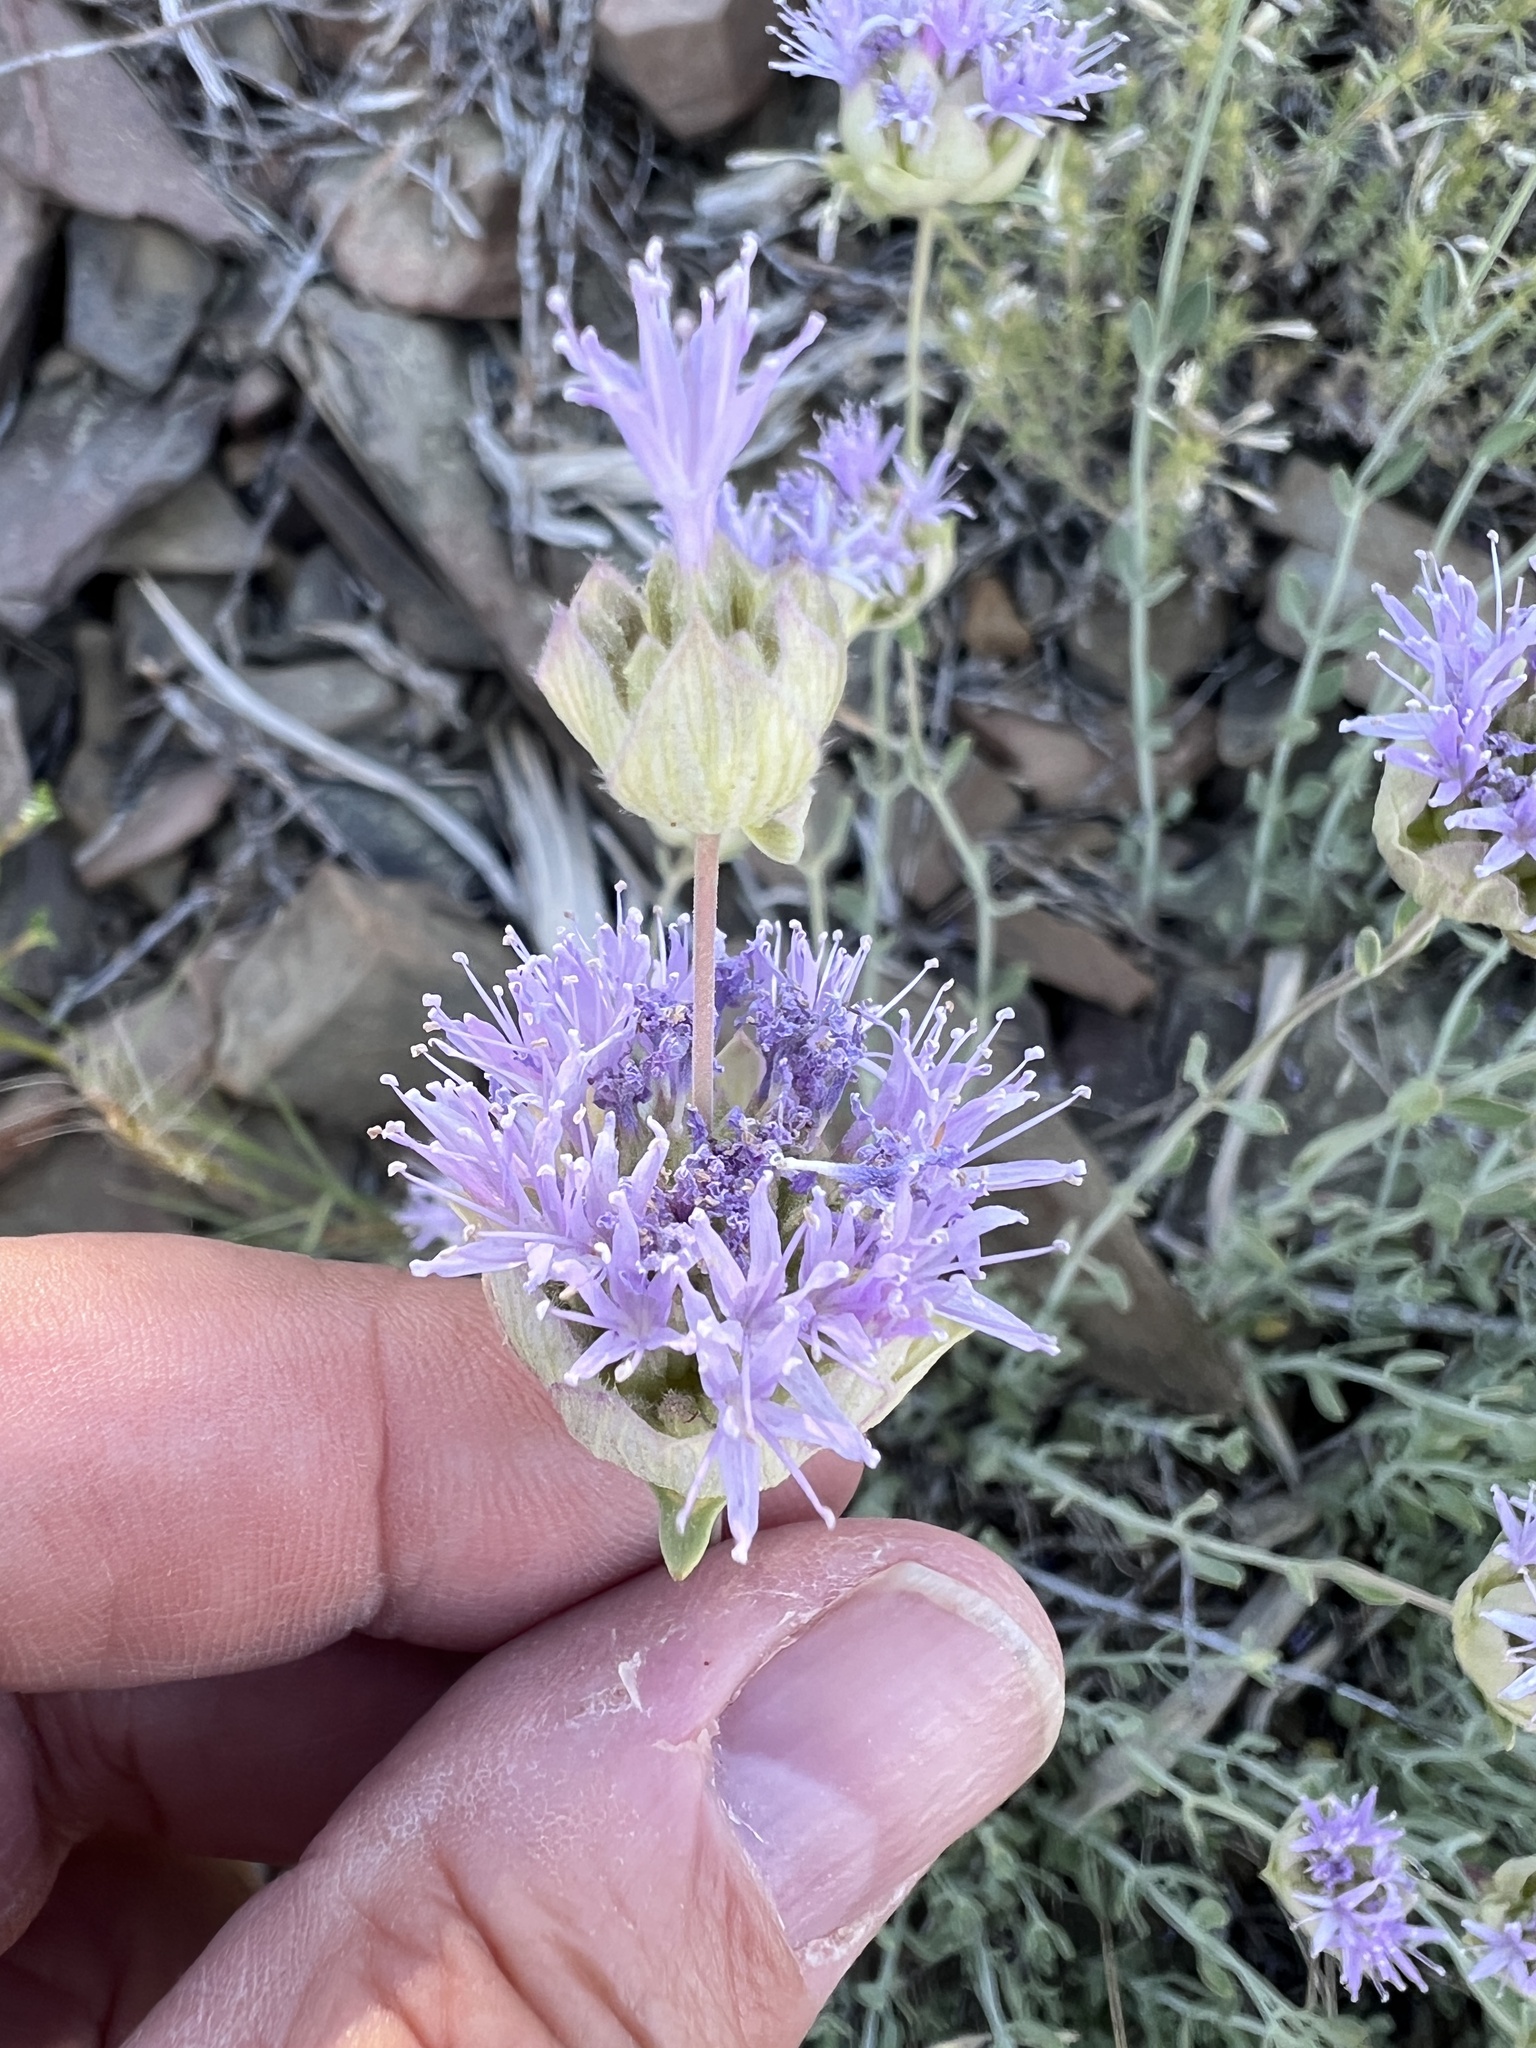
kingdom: Plantae
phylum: Tracheophyta
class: Magnoliopsida
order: Lamiales
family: Lamiaceae
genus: Monardella
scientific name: Monardella linoides
